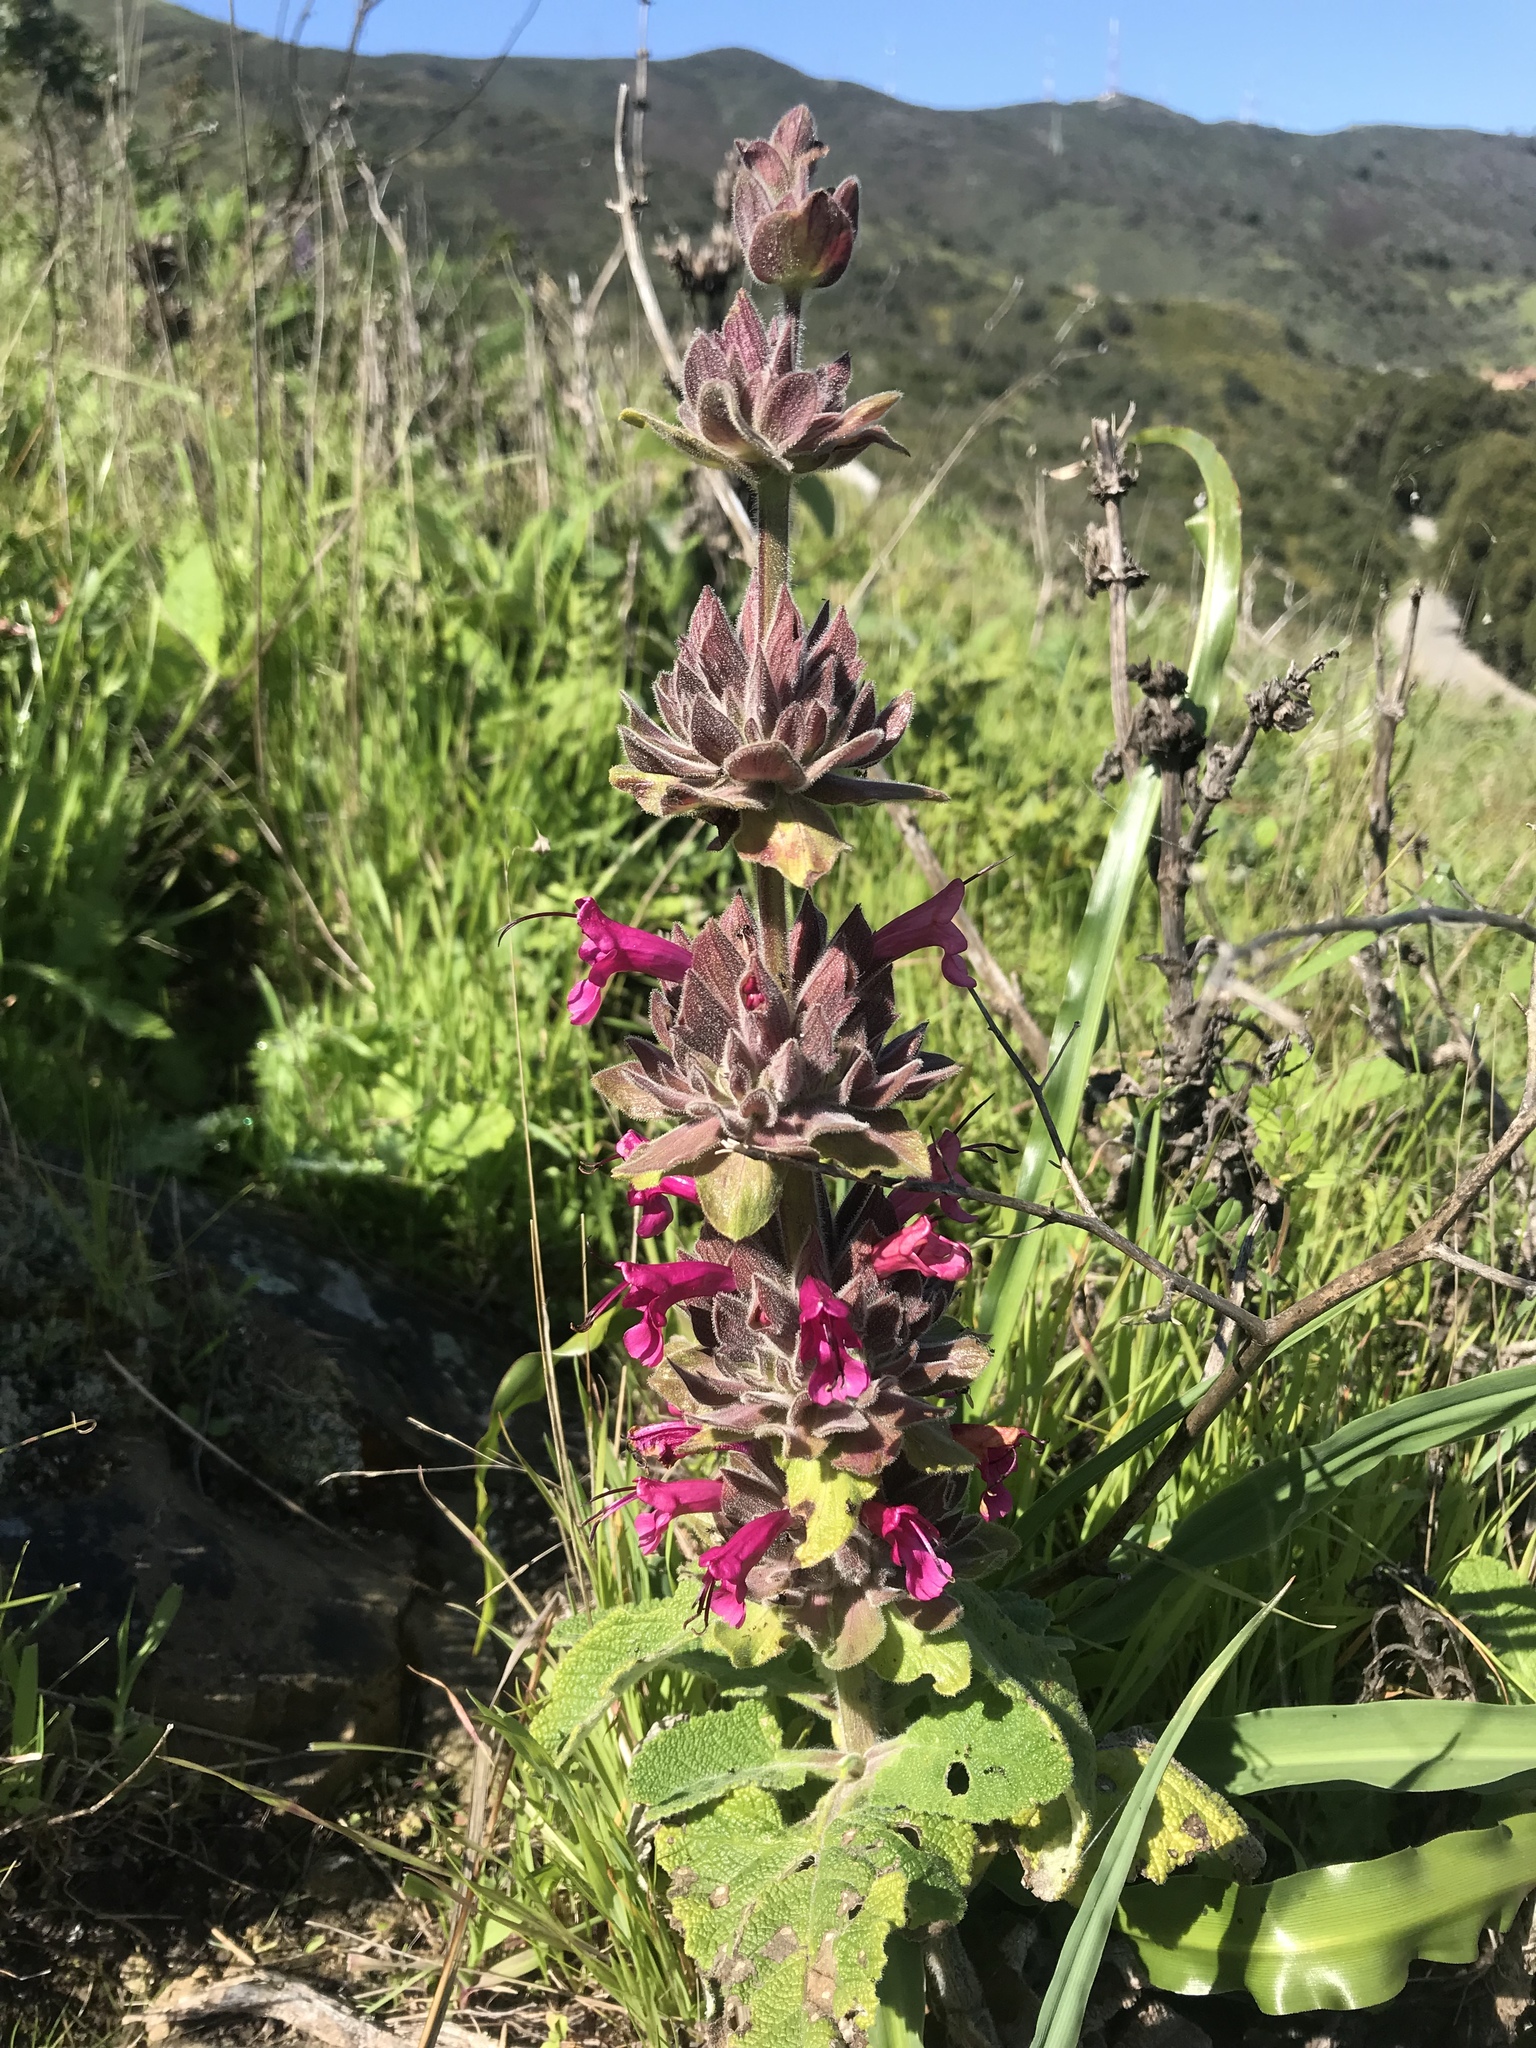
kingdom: Plantae
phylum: Tracheophyta
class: Magnoliopsida
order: Lamiales
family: Lamiaceae
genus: Salvia
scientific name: Salvia spathacea
